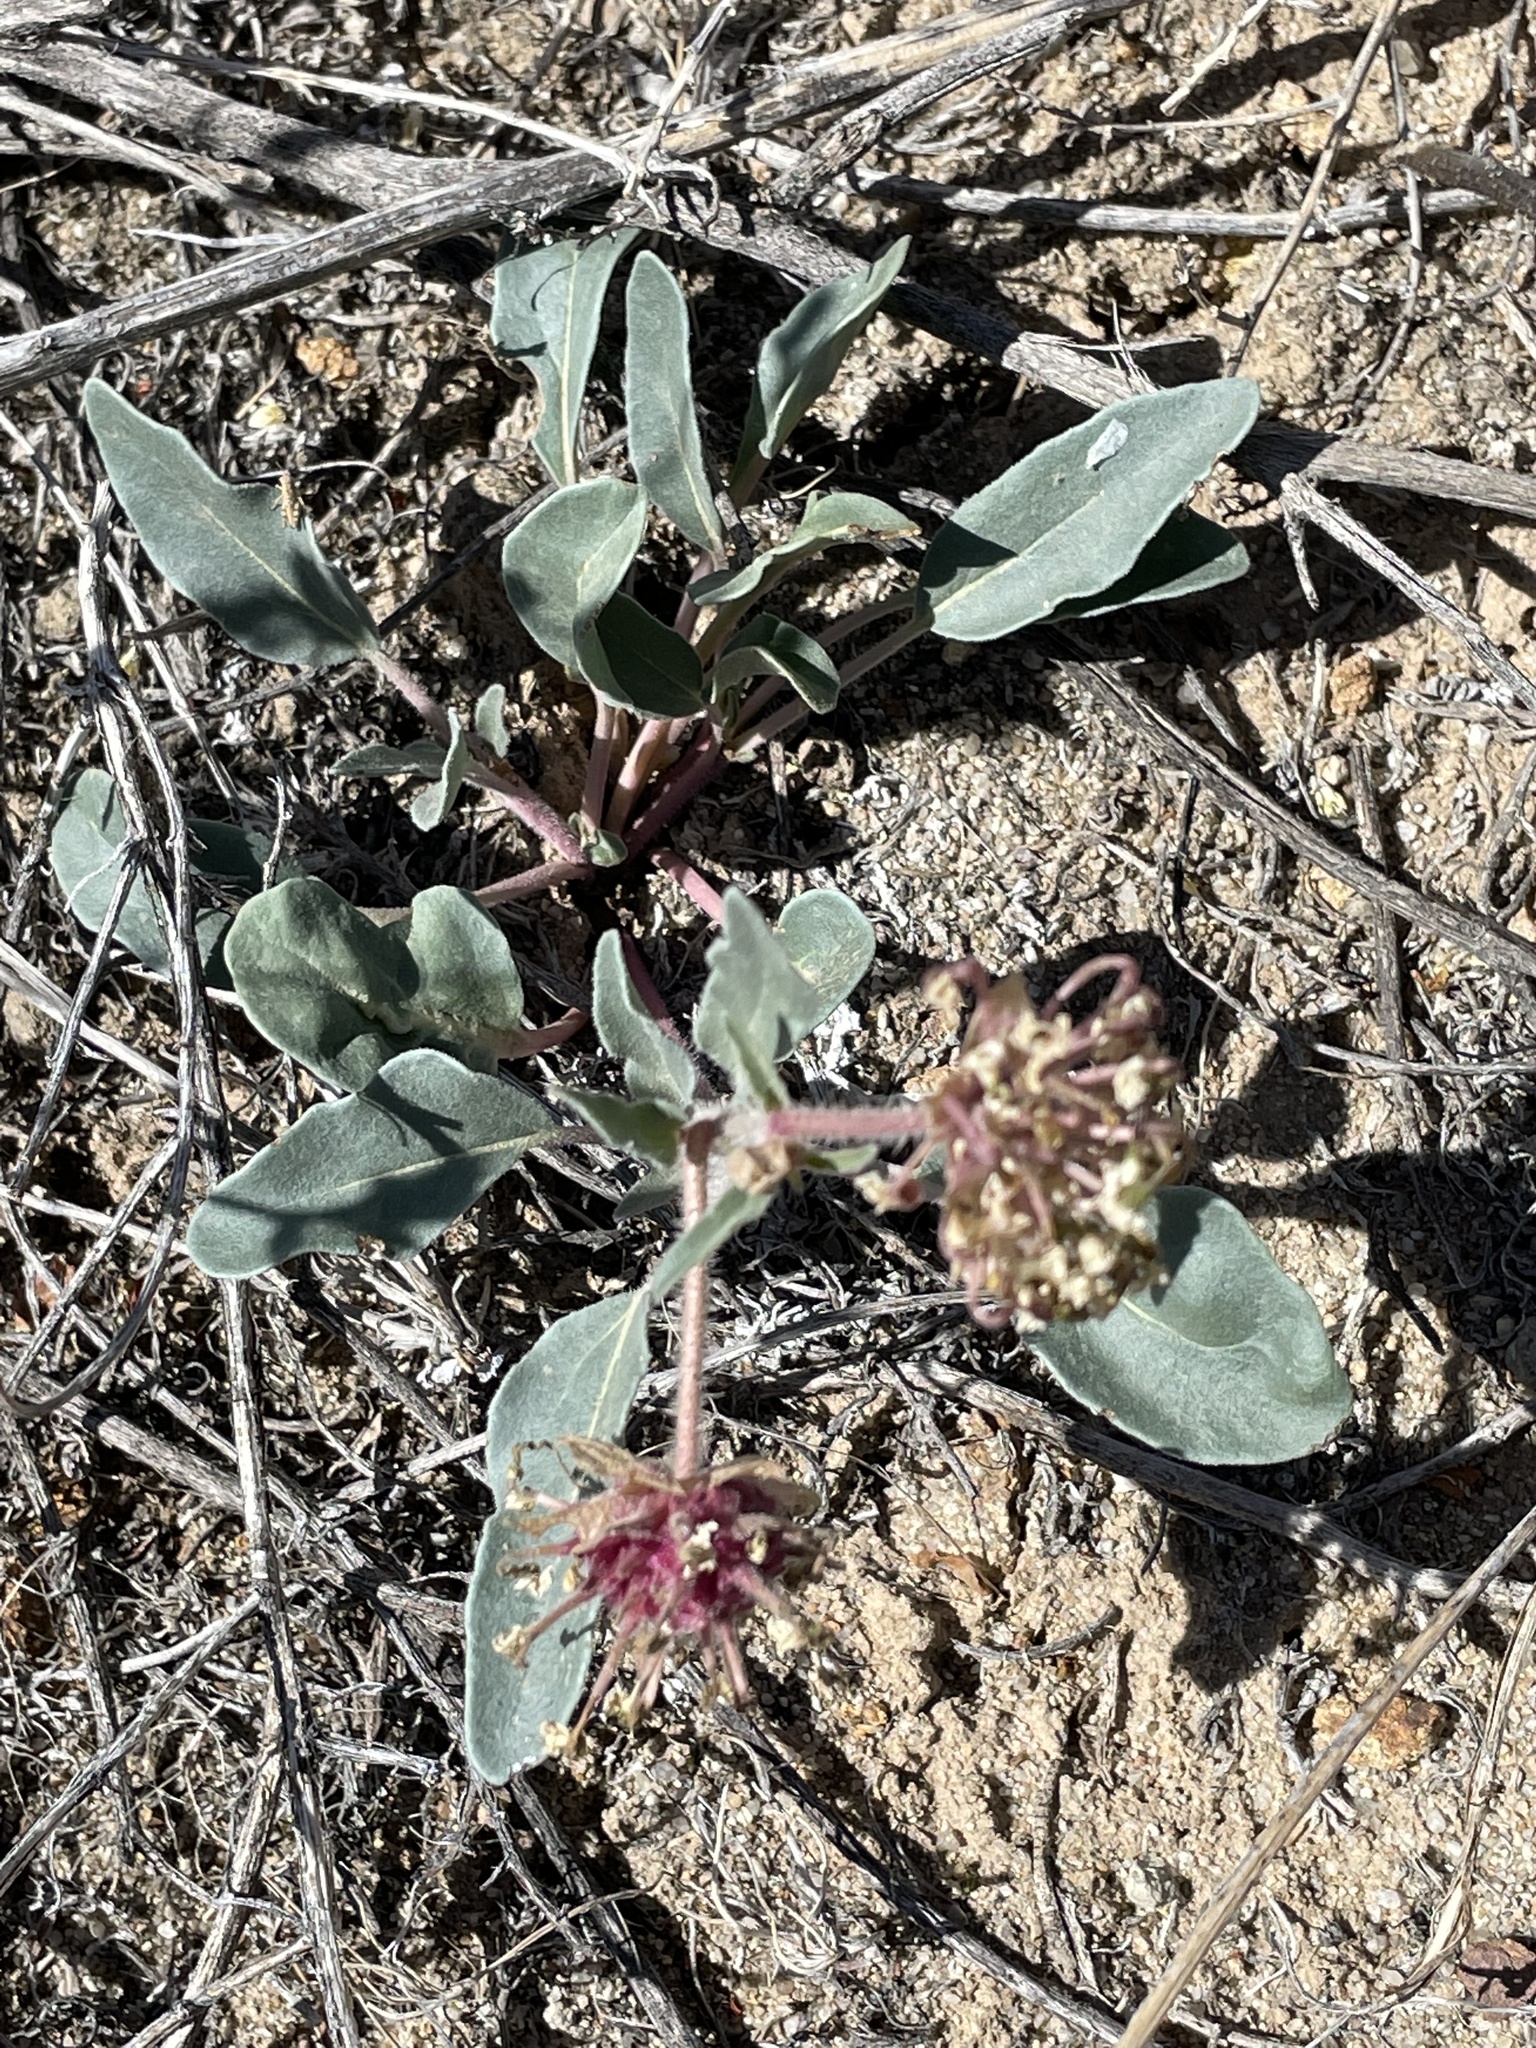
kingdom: Plantae
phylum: Tracheophyta
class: Magnoliopsida
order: Caryophyllales
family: Nyctaginaceae
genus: Abronia
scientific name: Abronia fragrans
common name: Fragrant sand-verbena
